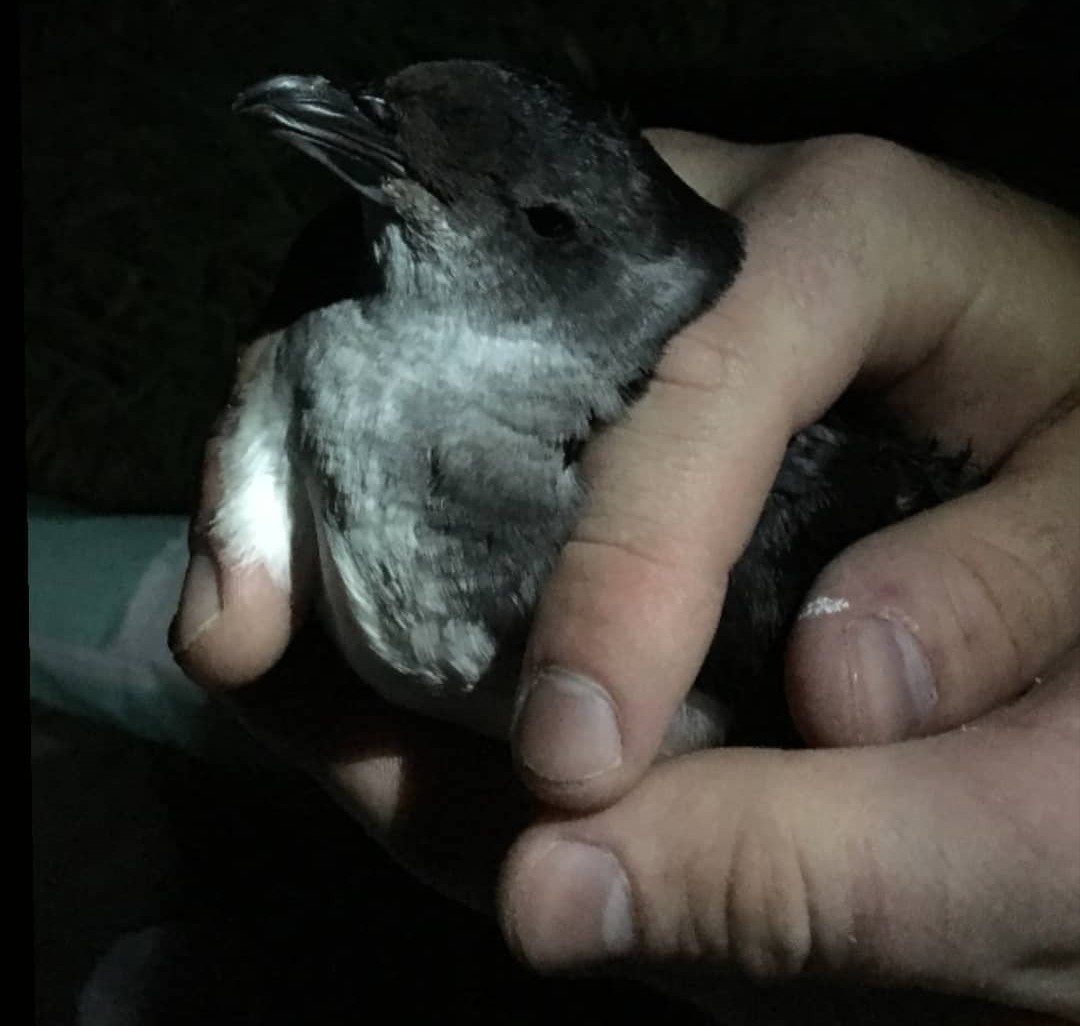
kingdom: Animalia
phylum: Chordata
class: Aves
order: Procellariiformes
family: Pelecanoididae
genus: Pelecanoides
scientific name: Pelecanoides urinatrix
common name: Common diving-petrel
